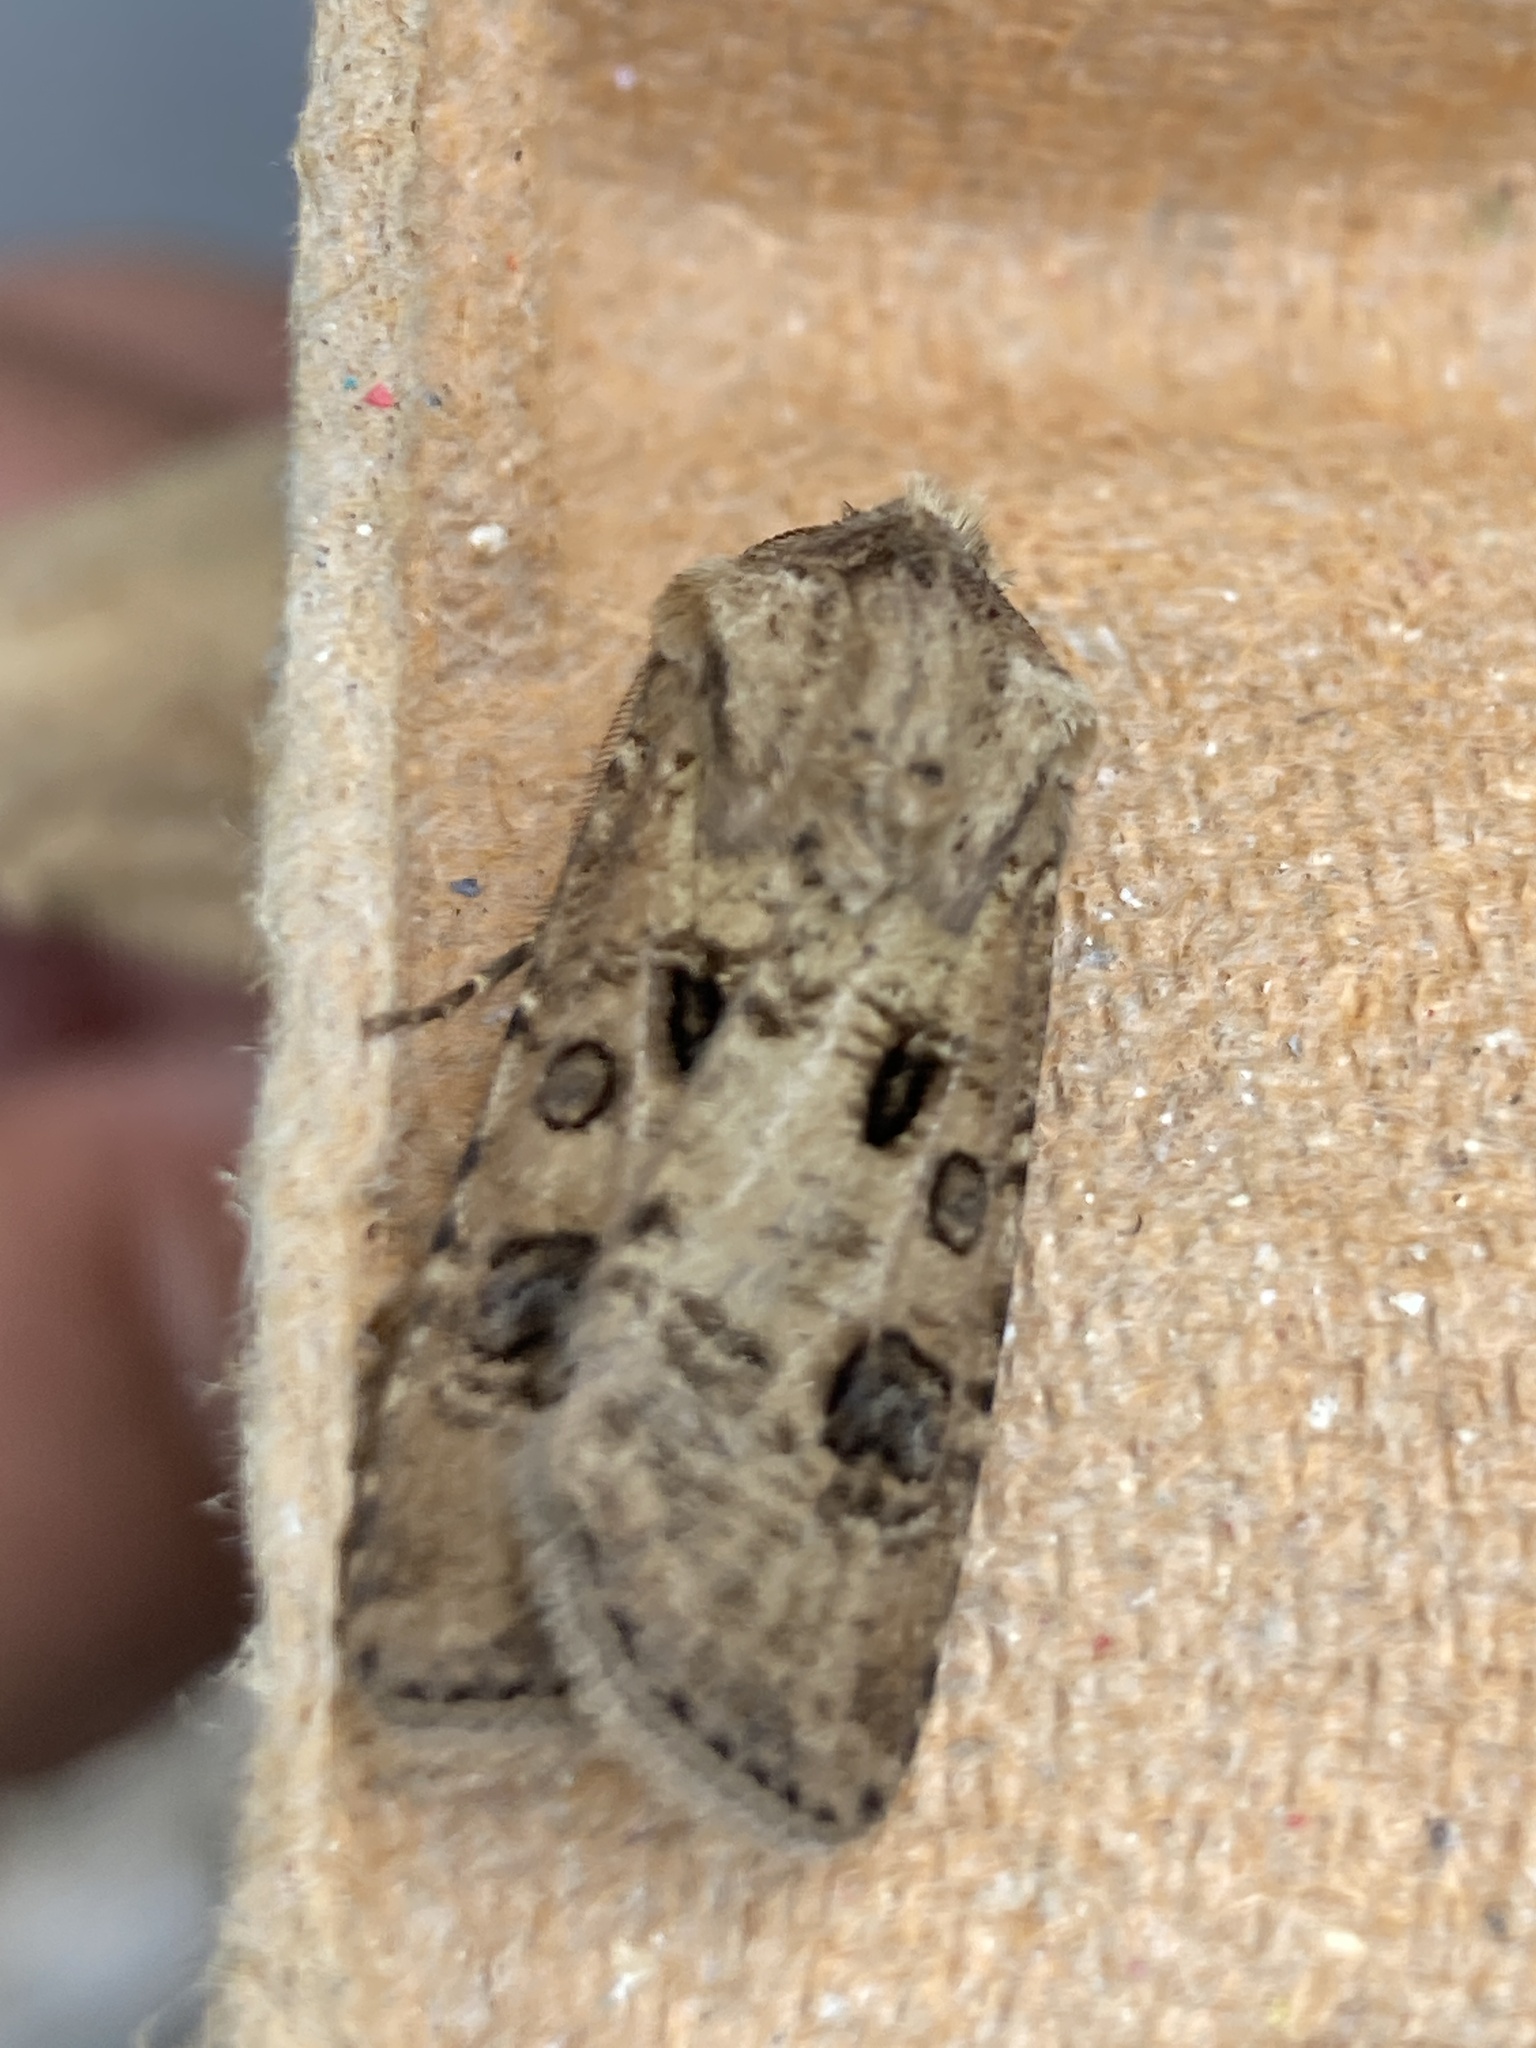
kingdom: Animalia
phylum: Arthropoda
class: Insecta
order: Lepidoptera
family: Noctuidae
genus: Agrotis
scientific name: Agrotis clavis
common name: Heart and club
